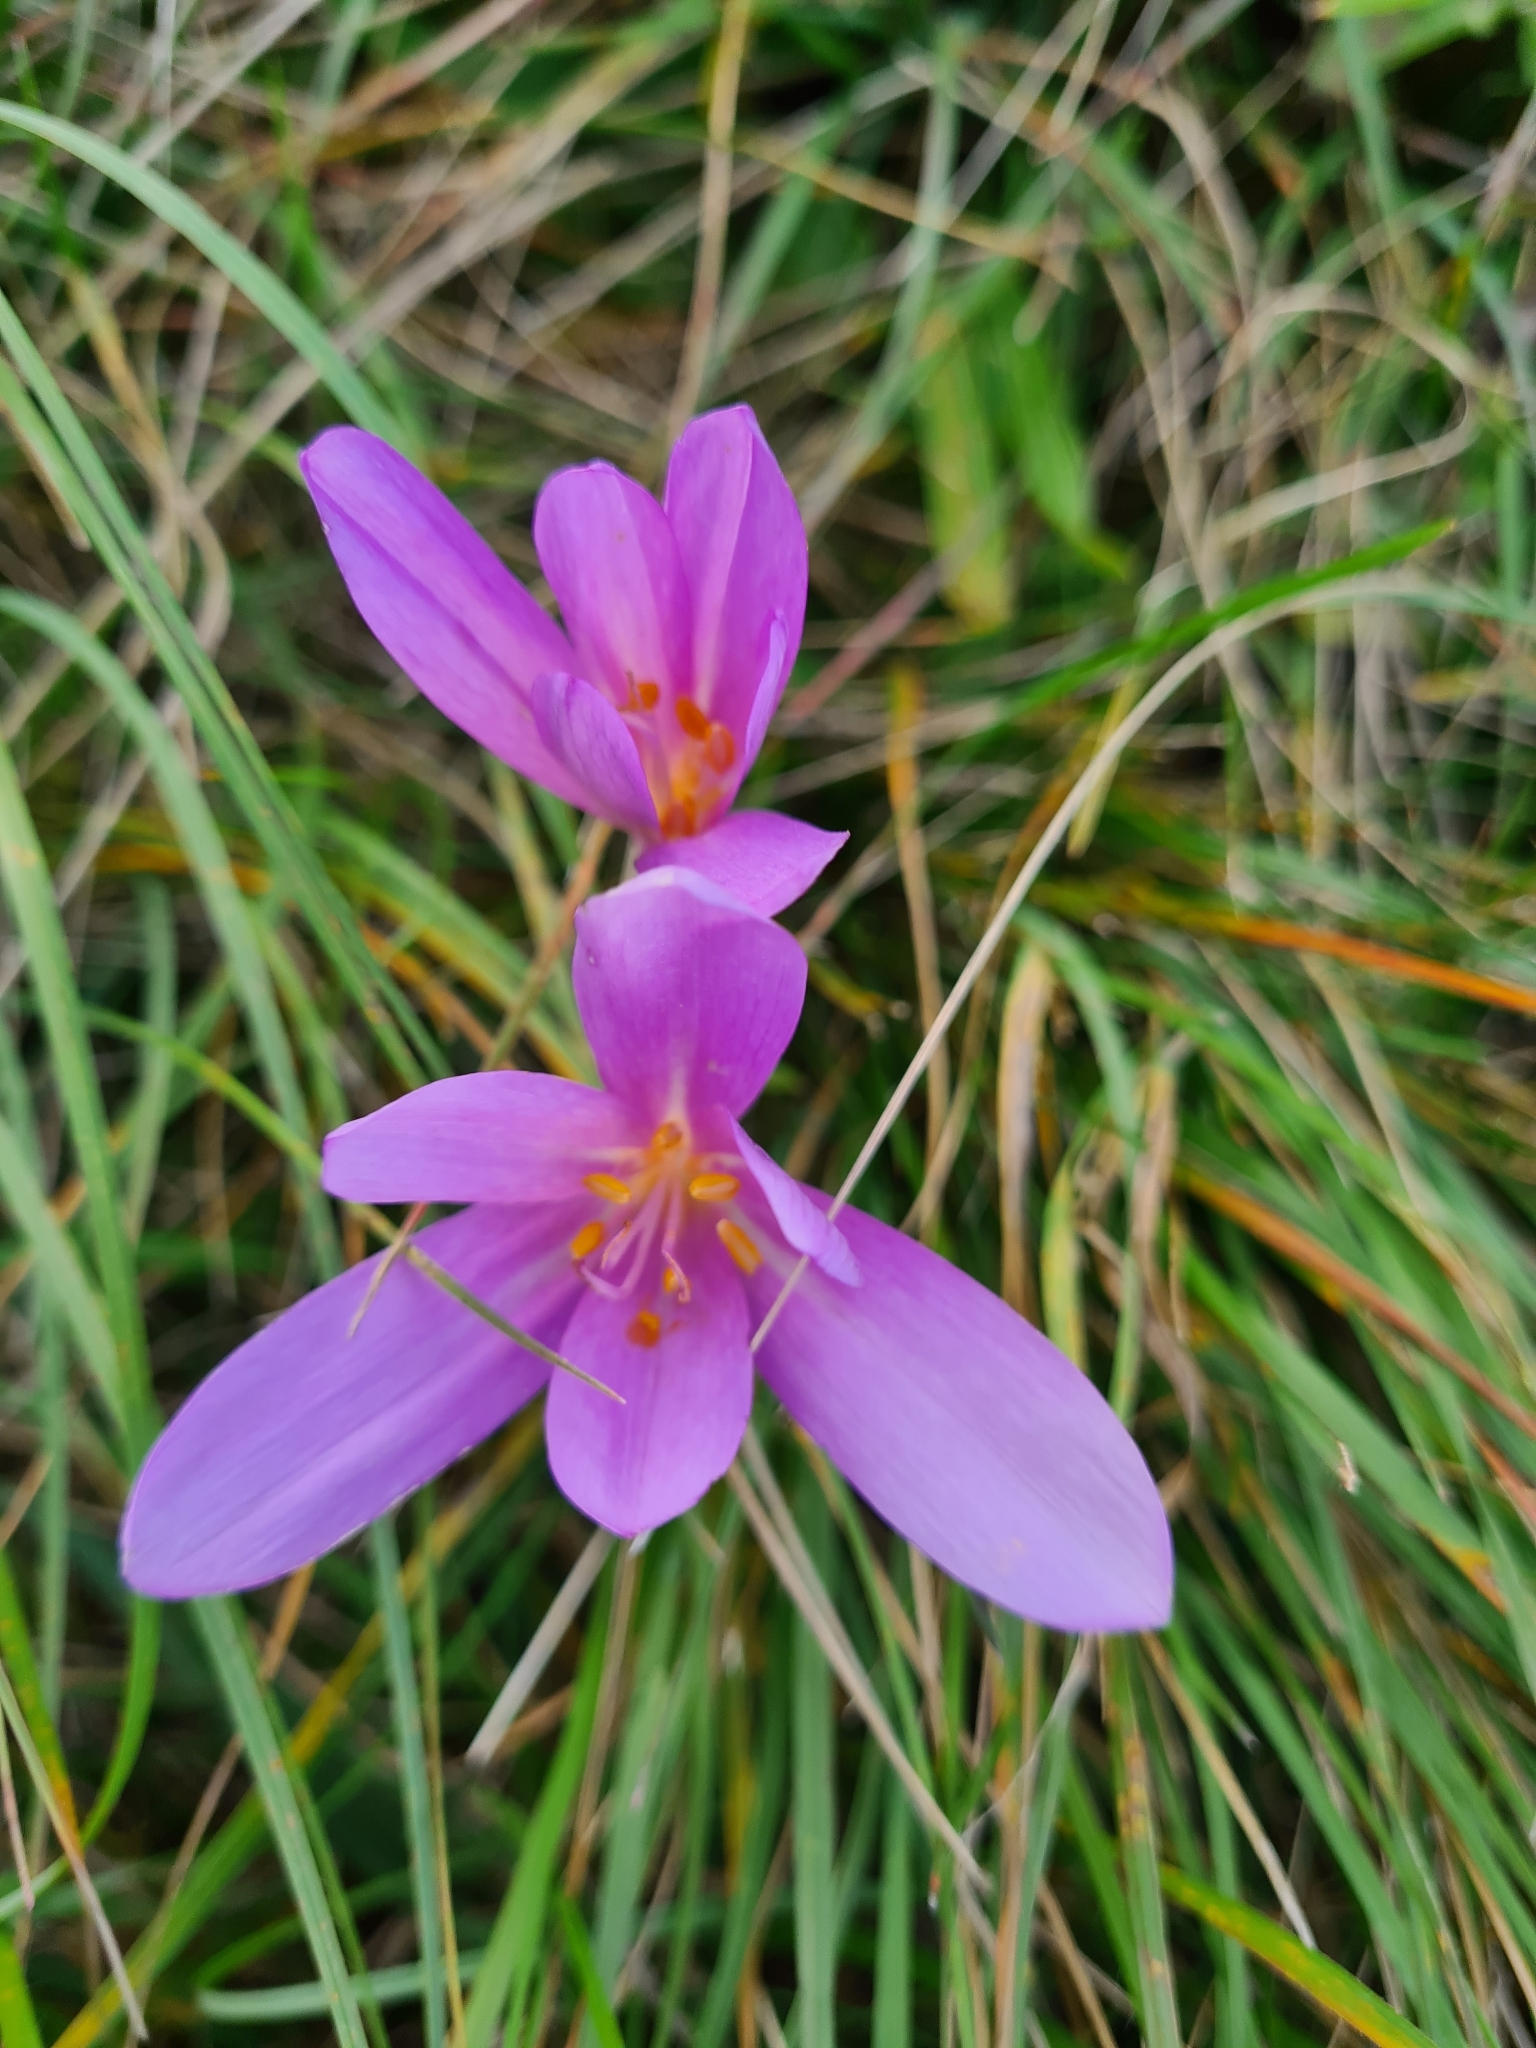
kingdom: Plantae
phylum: Tracheophyta
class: Liliopsida
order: Liliales
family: Colchicaceae
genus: Colchicum
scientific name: Colchicum autumnale
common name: Autumn crocus
